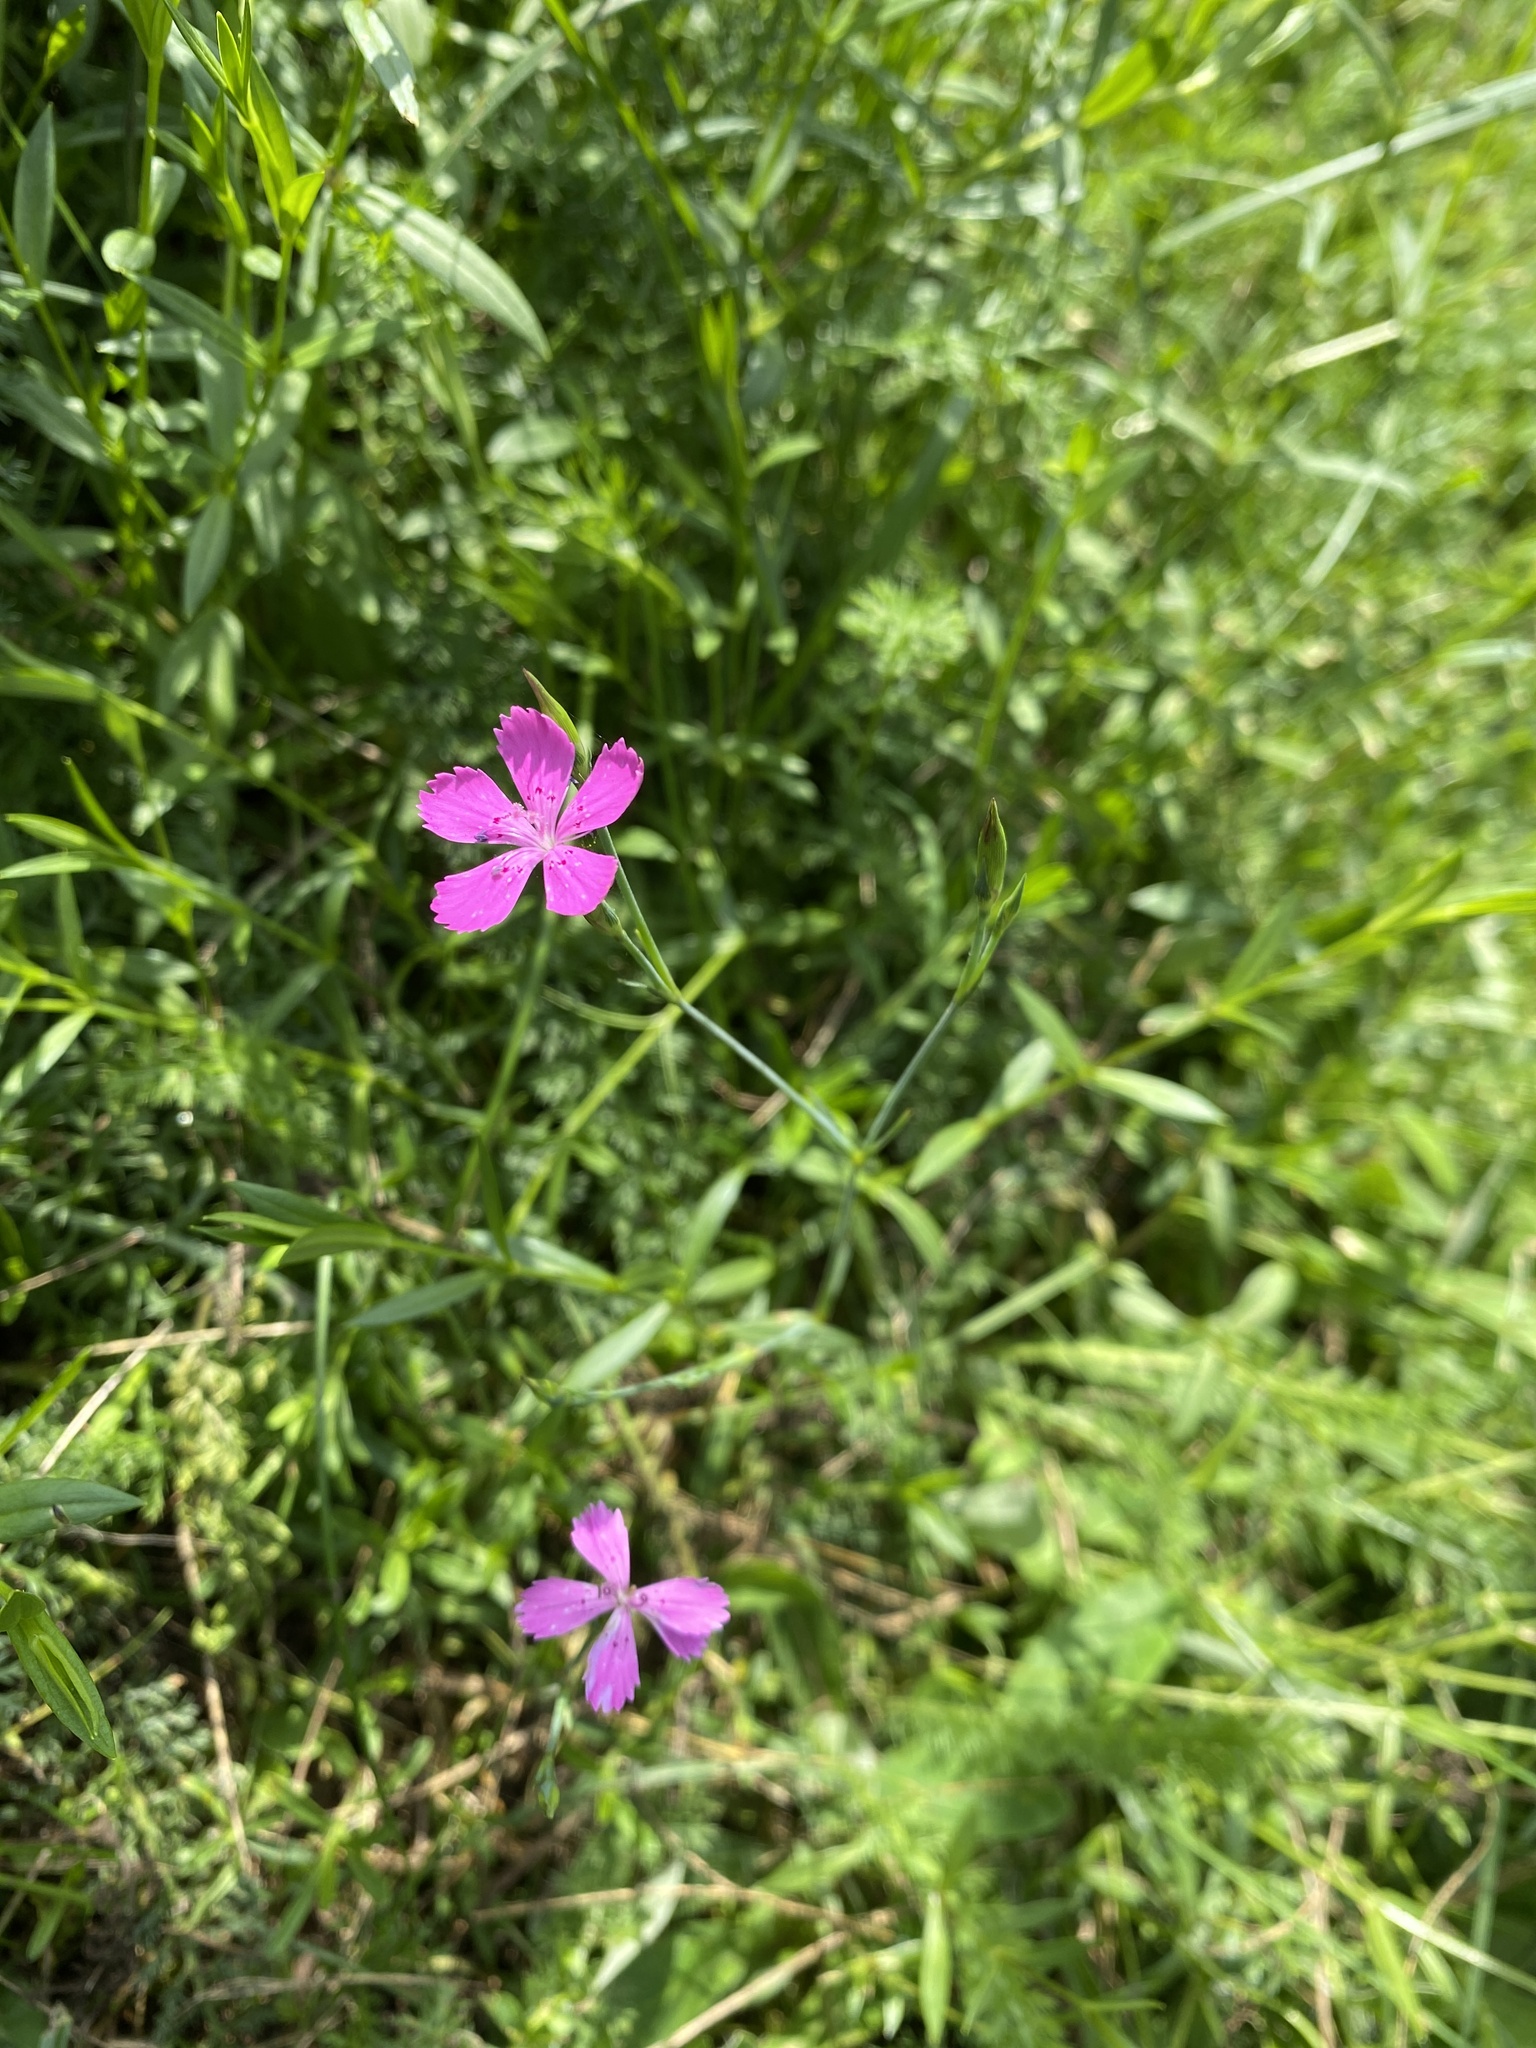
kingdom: Plantae
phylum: Tracheophyta
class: Magnoliopsida
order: Caryophyllales
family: Caryophyllaceae
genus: Dianthus
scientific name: Dianthus deltoides
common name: Maiden pink
